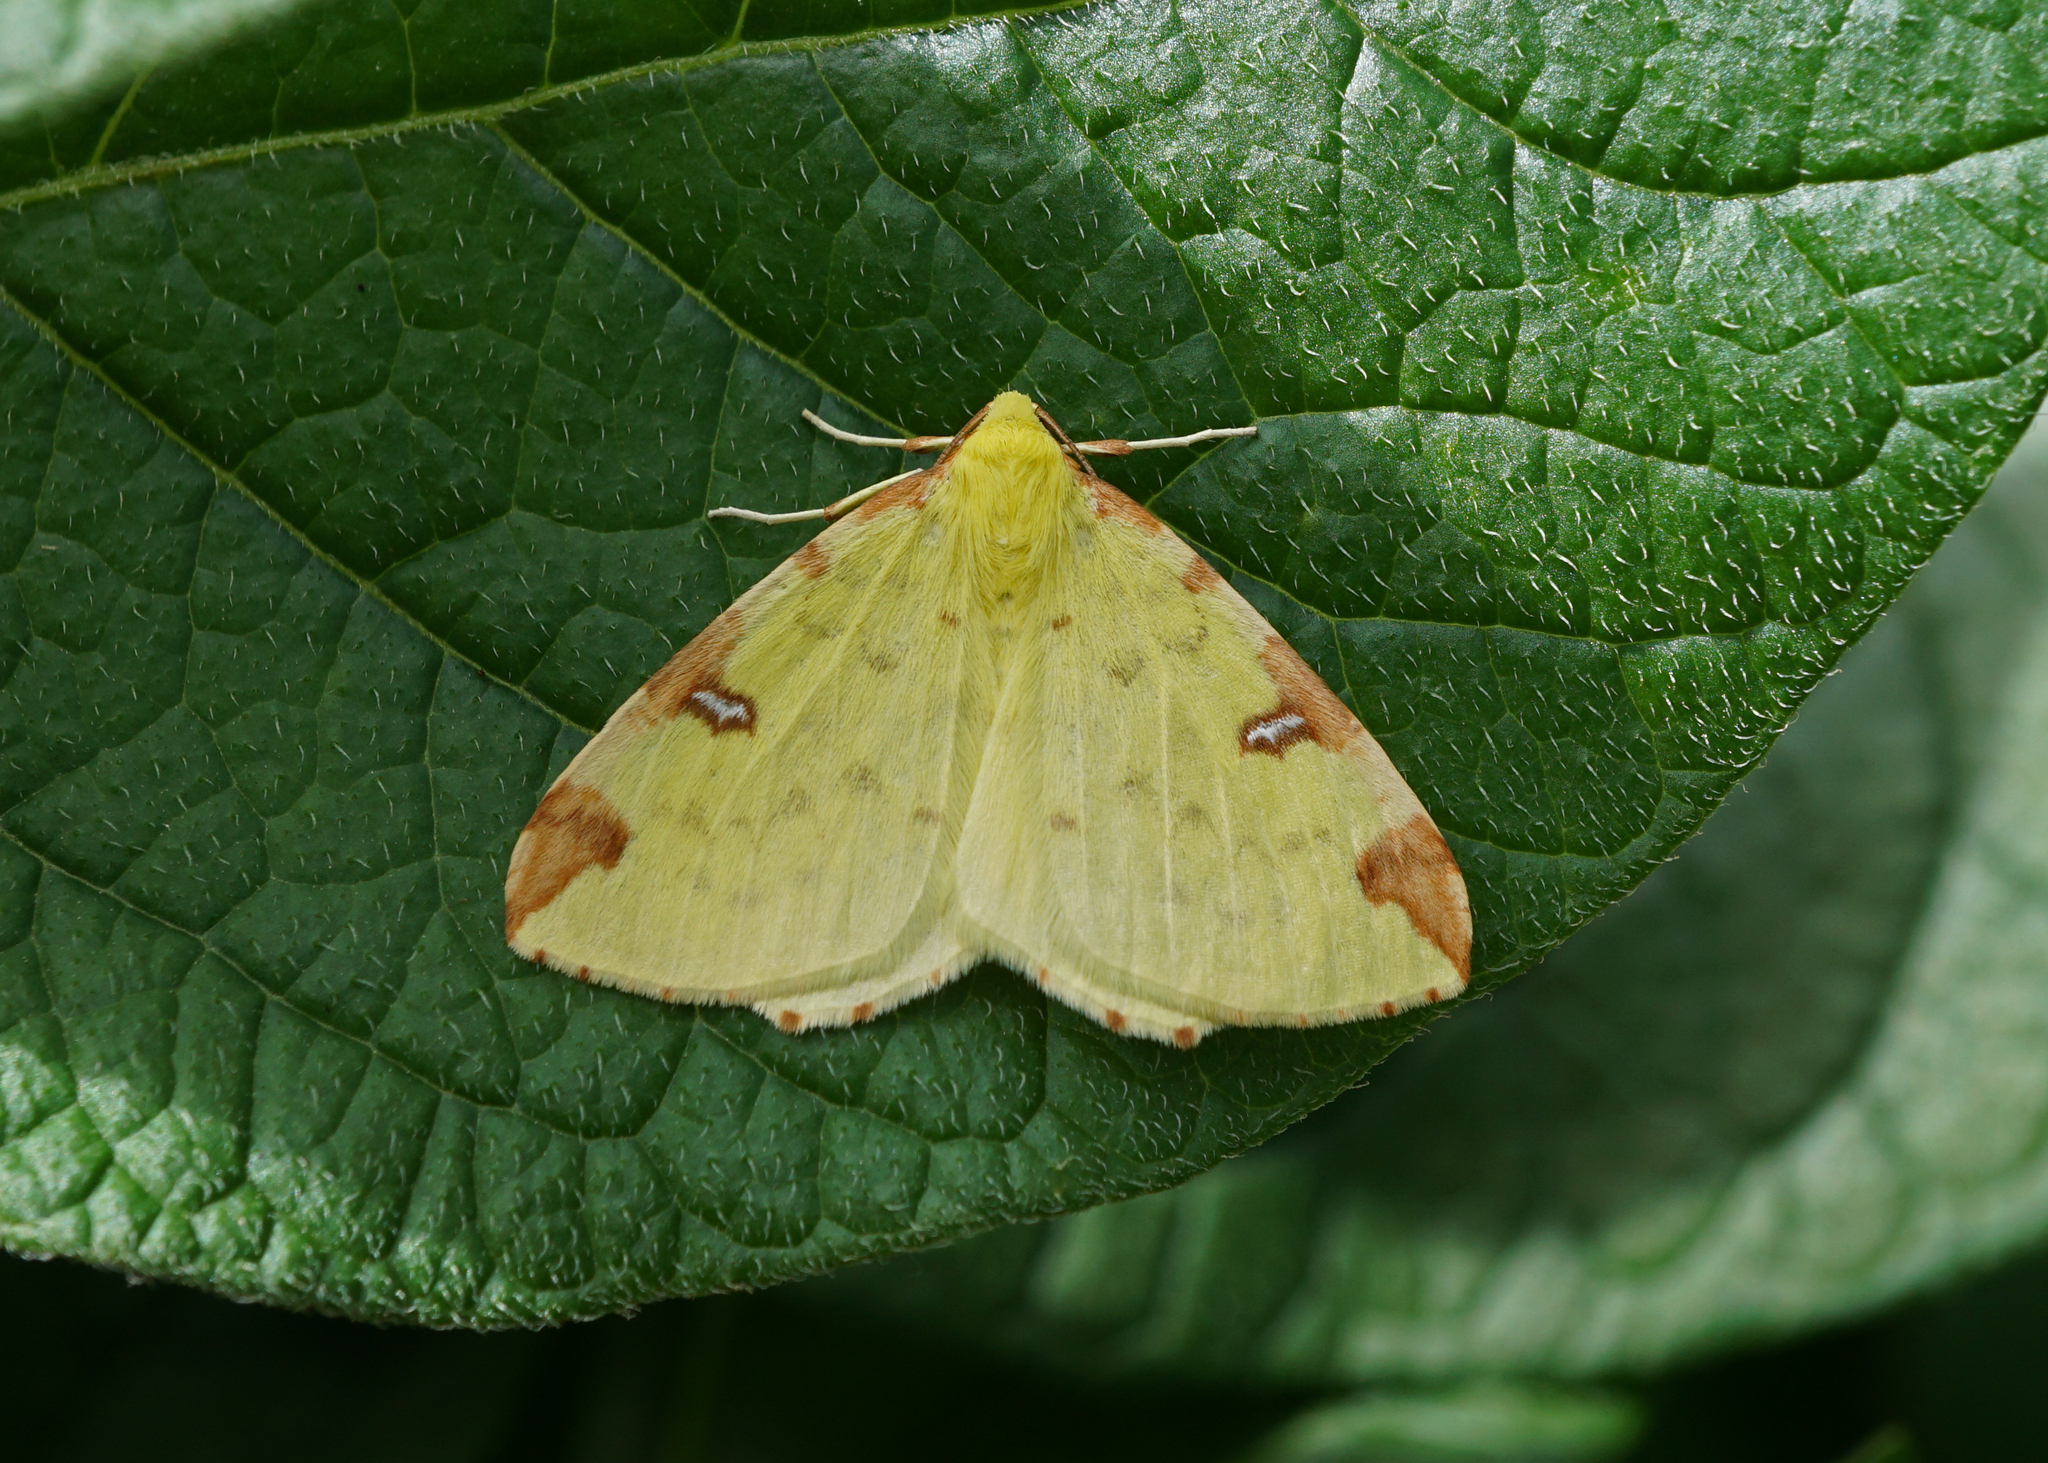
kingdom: Animalia
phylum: Arthropoda
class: Insecta
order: Lepidoptera
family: Geometridae
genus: Opisthograptis
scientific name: Opisthograptis luteolata
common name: Brimstone moth
